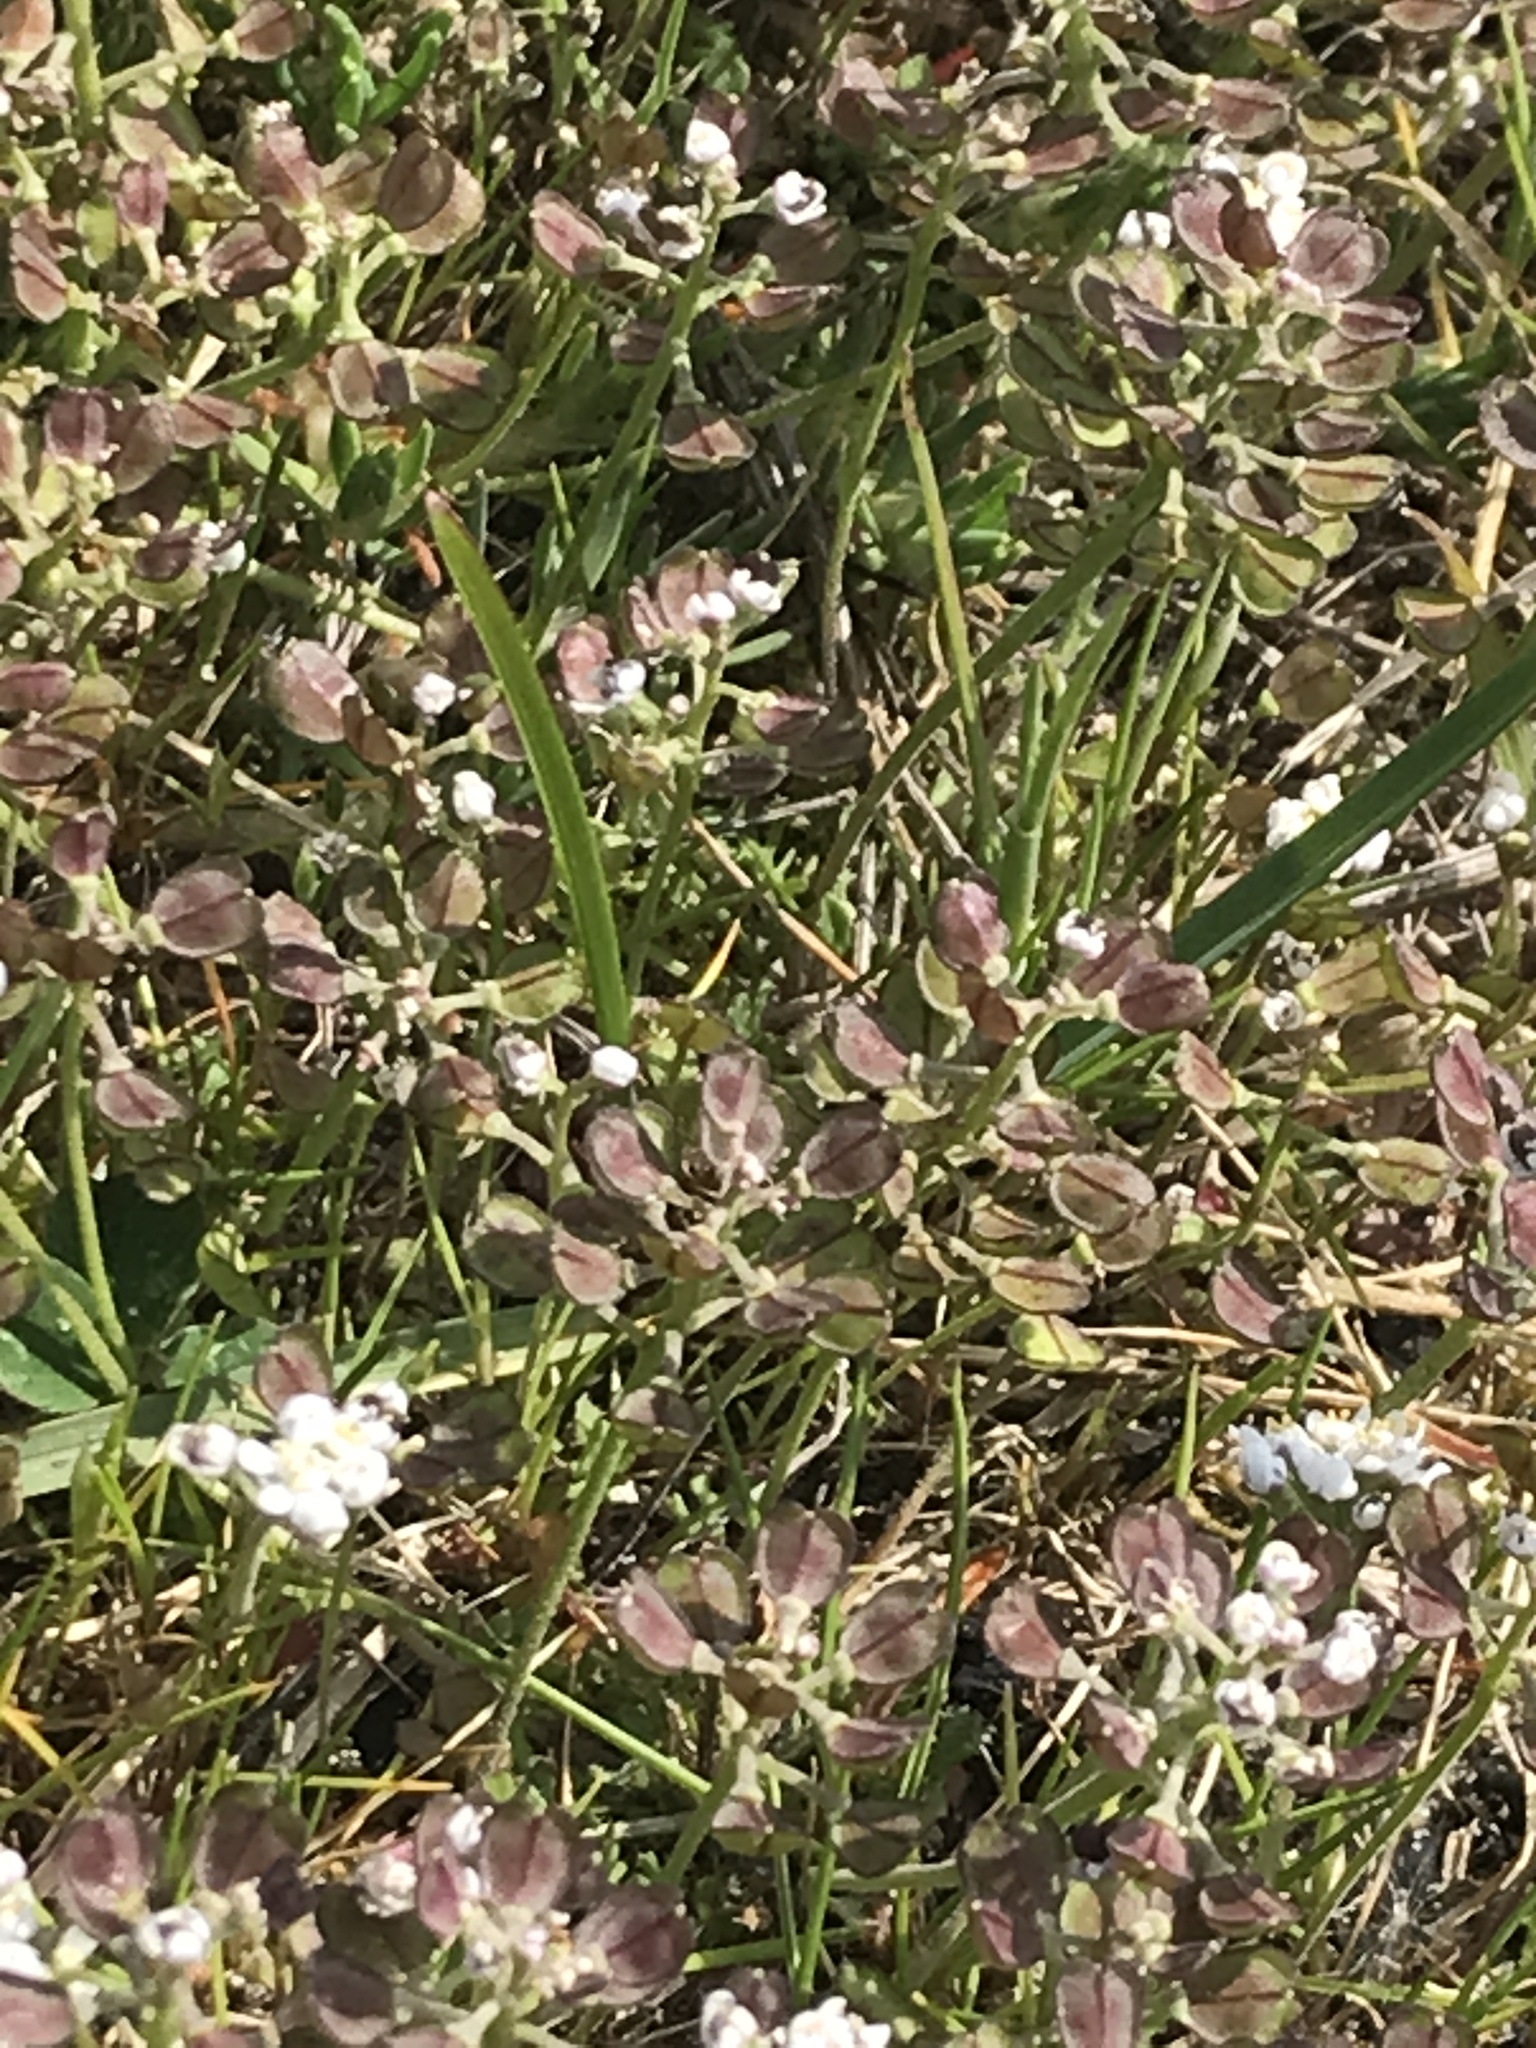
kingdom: Plantae
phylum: Tracheophyta
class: Magnoliopsida
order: Brassicales
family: Brassicaceae
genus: Teesdalia
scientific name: Teesdalia nudicaulis
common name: Shepherd's cress
